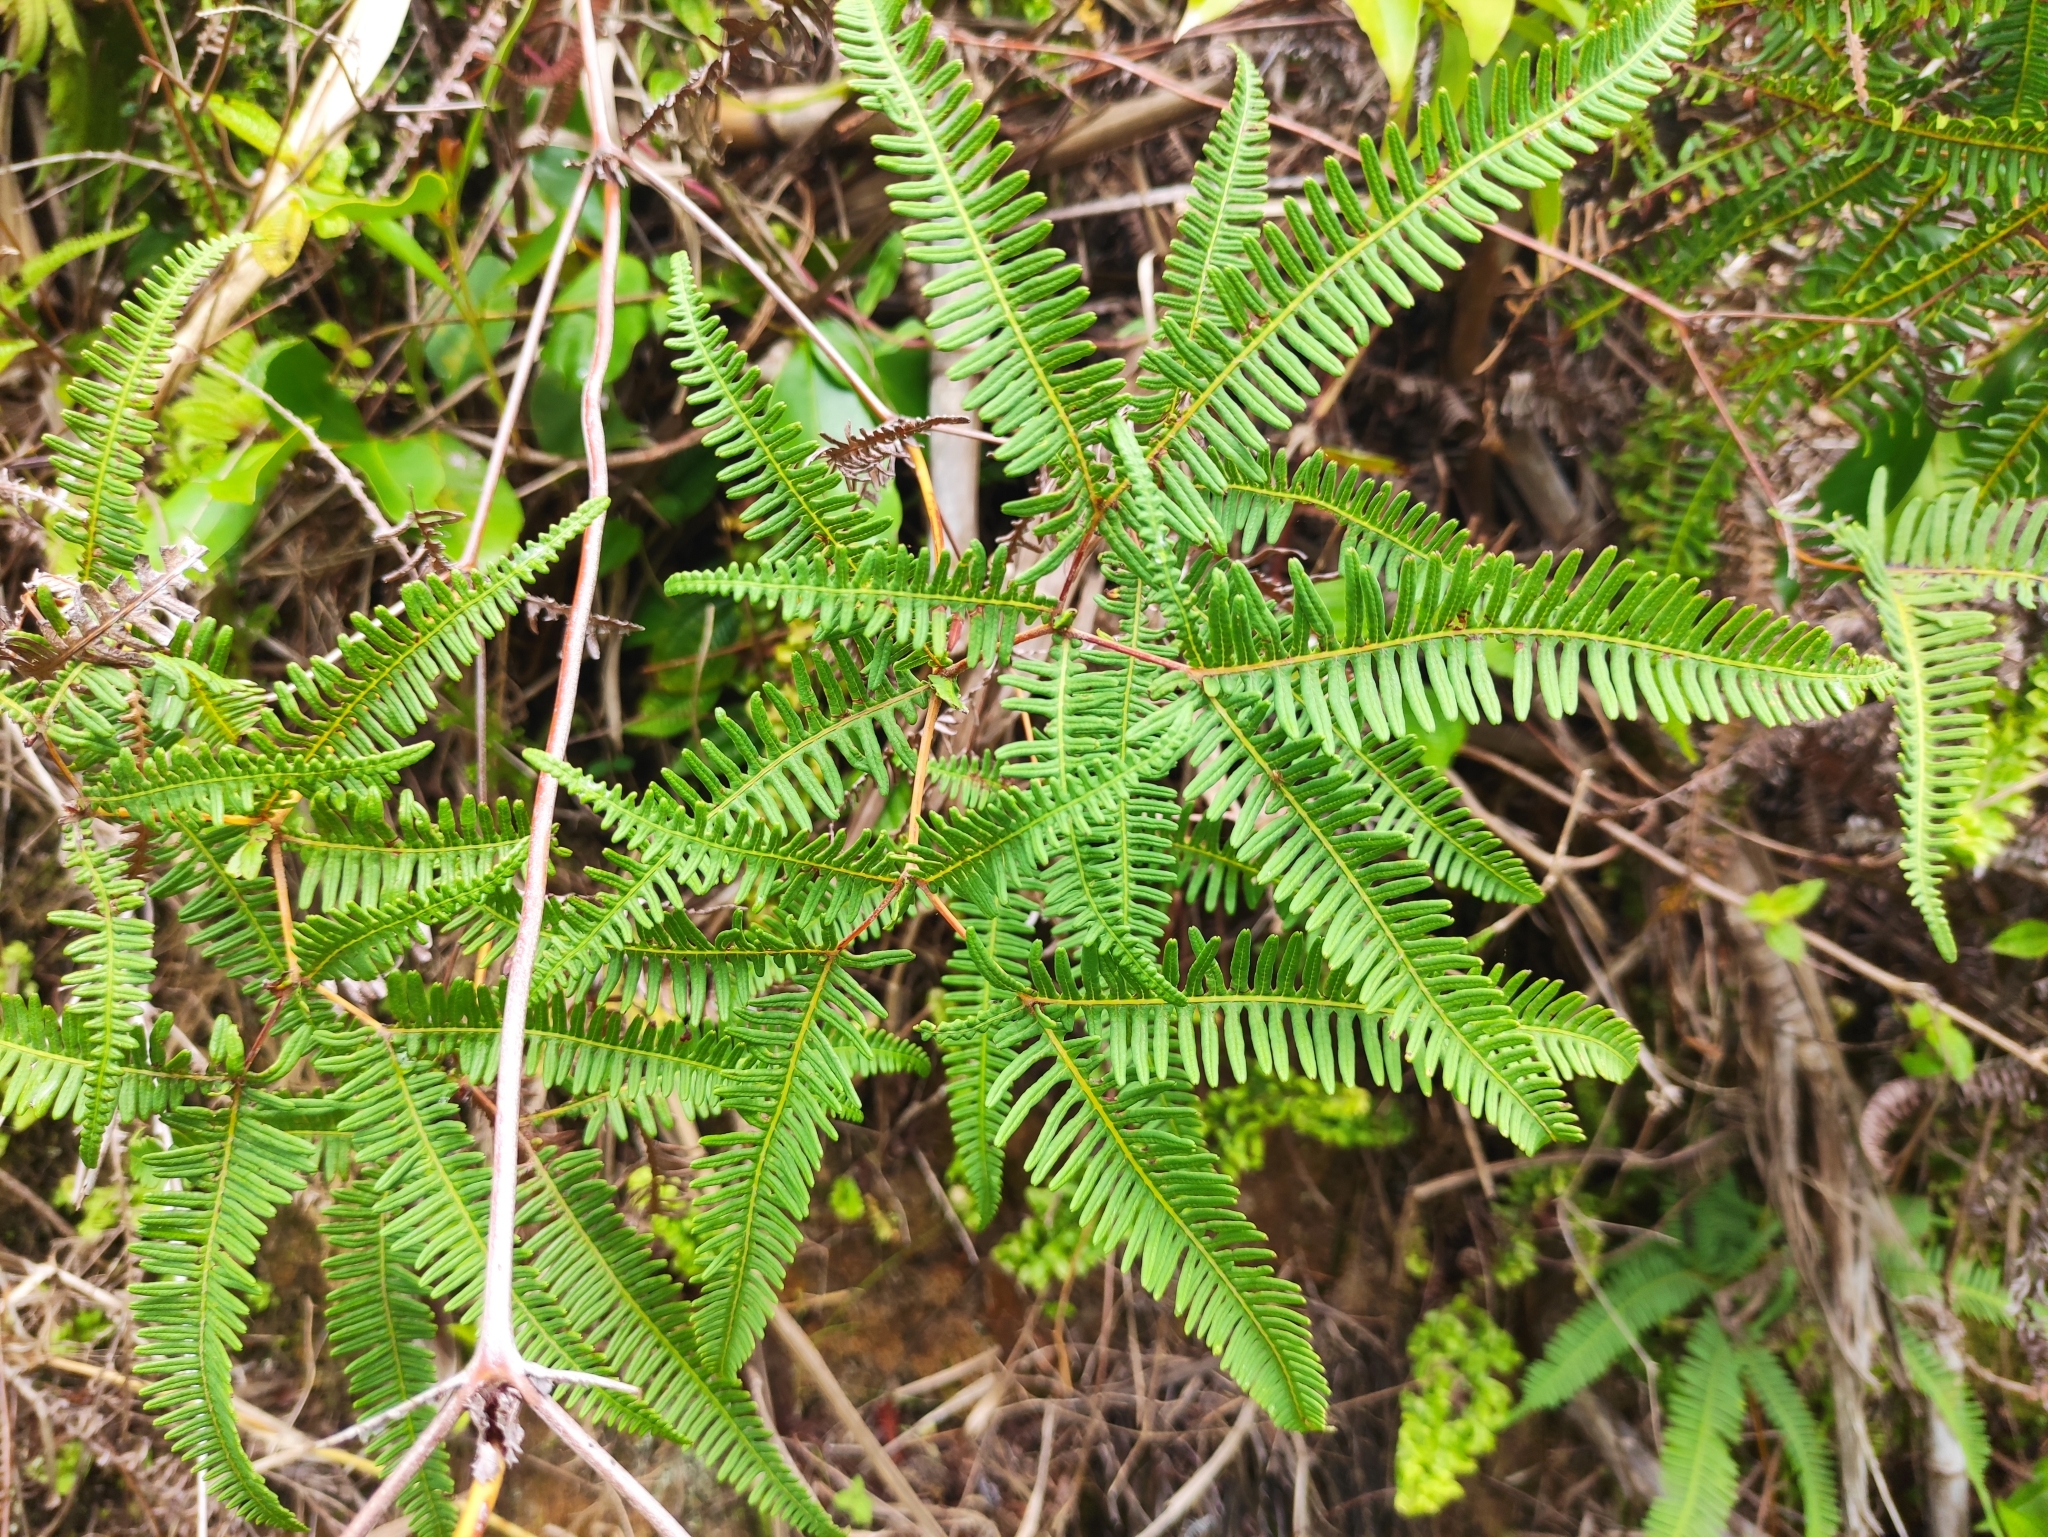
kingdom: Plantae
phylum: Tracheophyta
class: Polypodiopsida
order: Gleicheniales
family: Gleicheniaceae
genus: Dicranopteris
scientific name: Dicranopteris linearis
